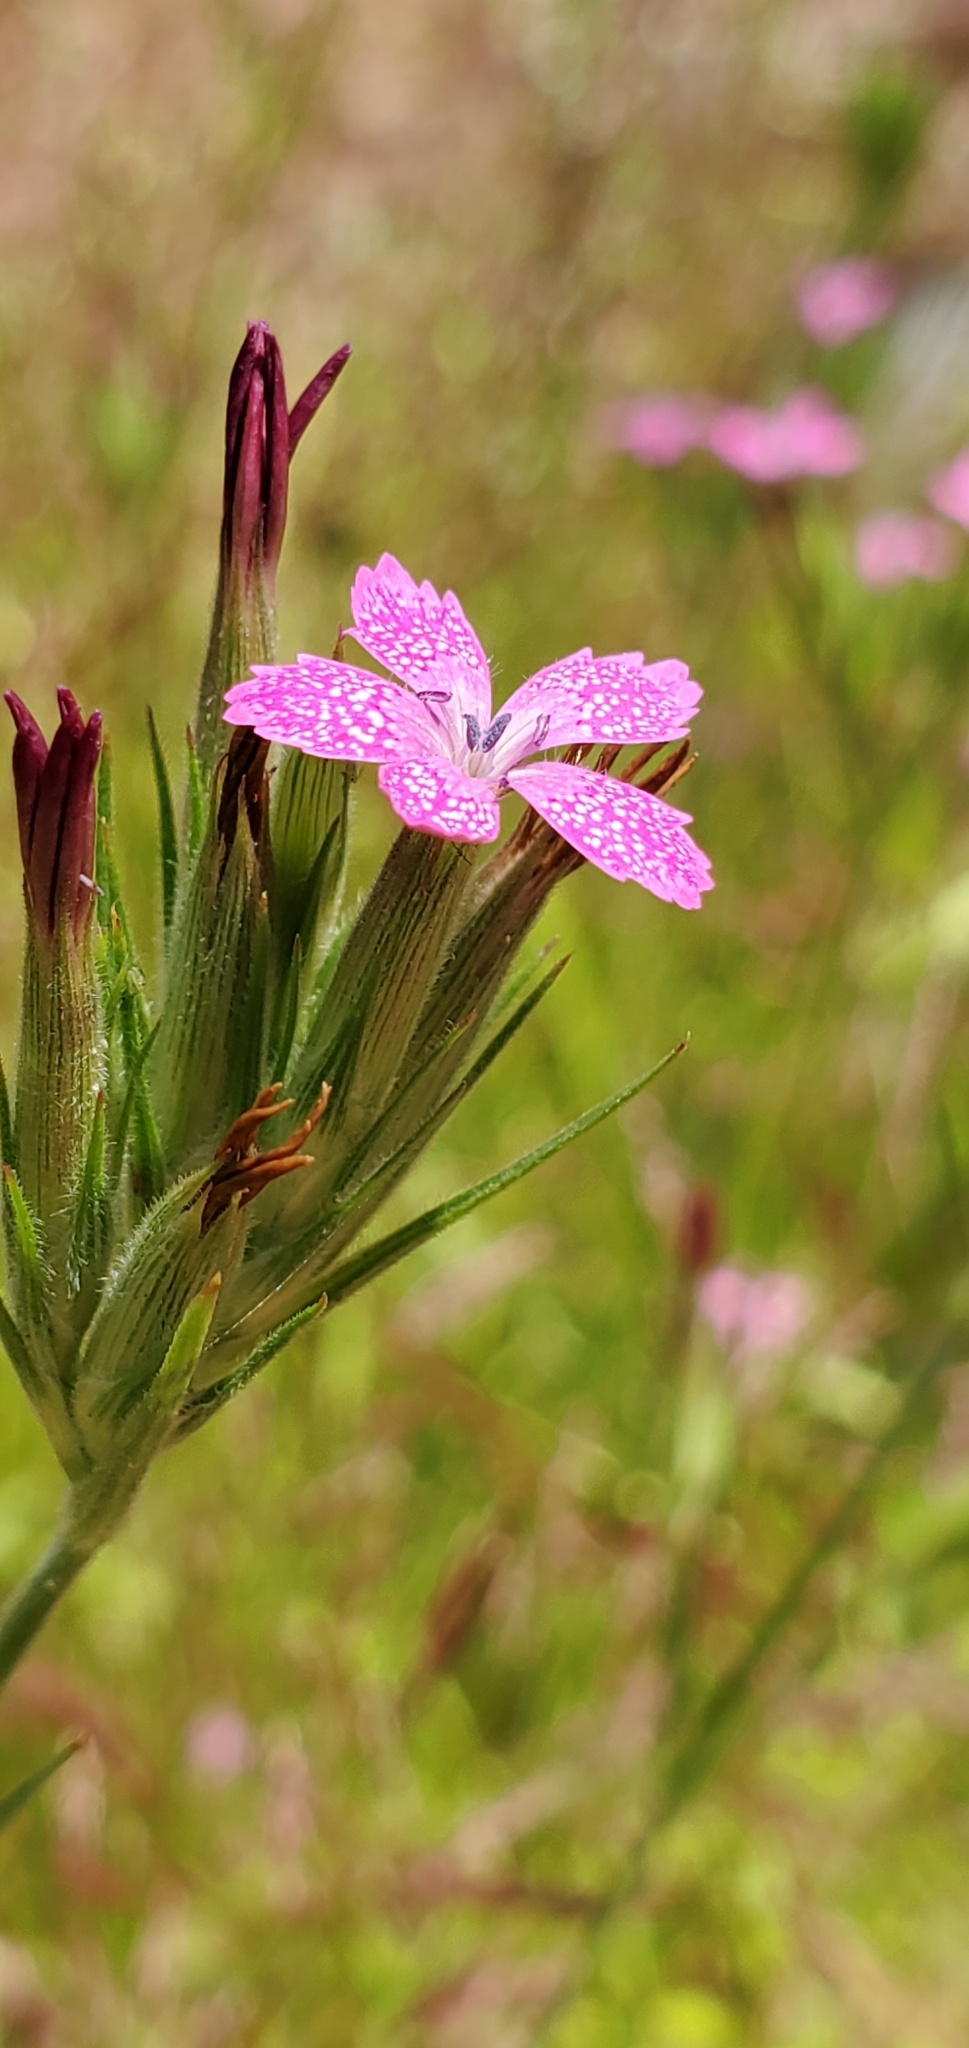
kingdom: Plantae
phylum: Tracheophyta
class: Magnoliopsida
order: Caryophyllales
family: Caryophyllaceae
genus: Dianthus
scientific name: Dianthus armeria
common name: Deptford pink
